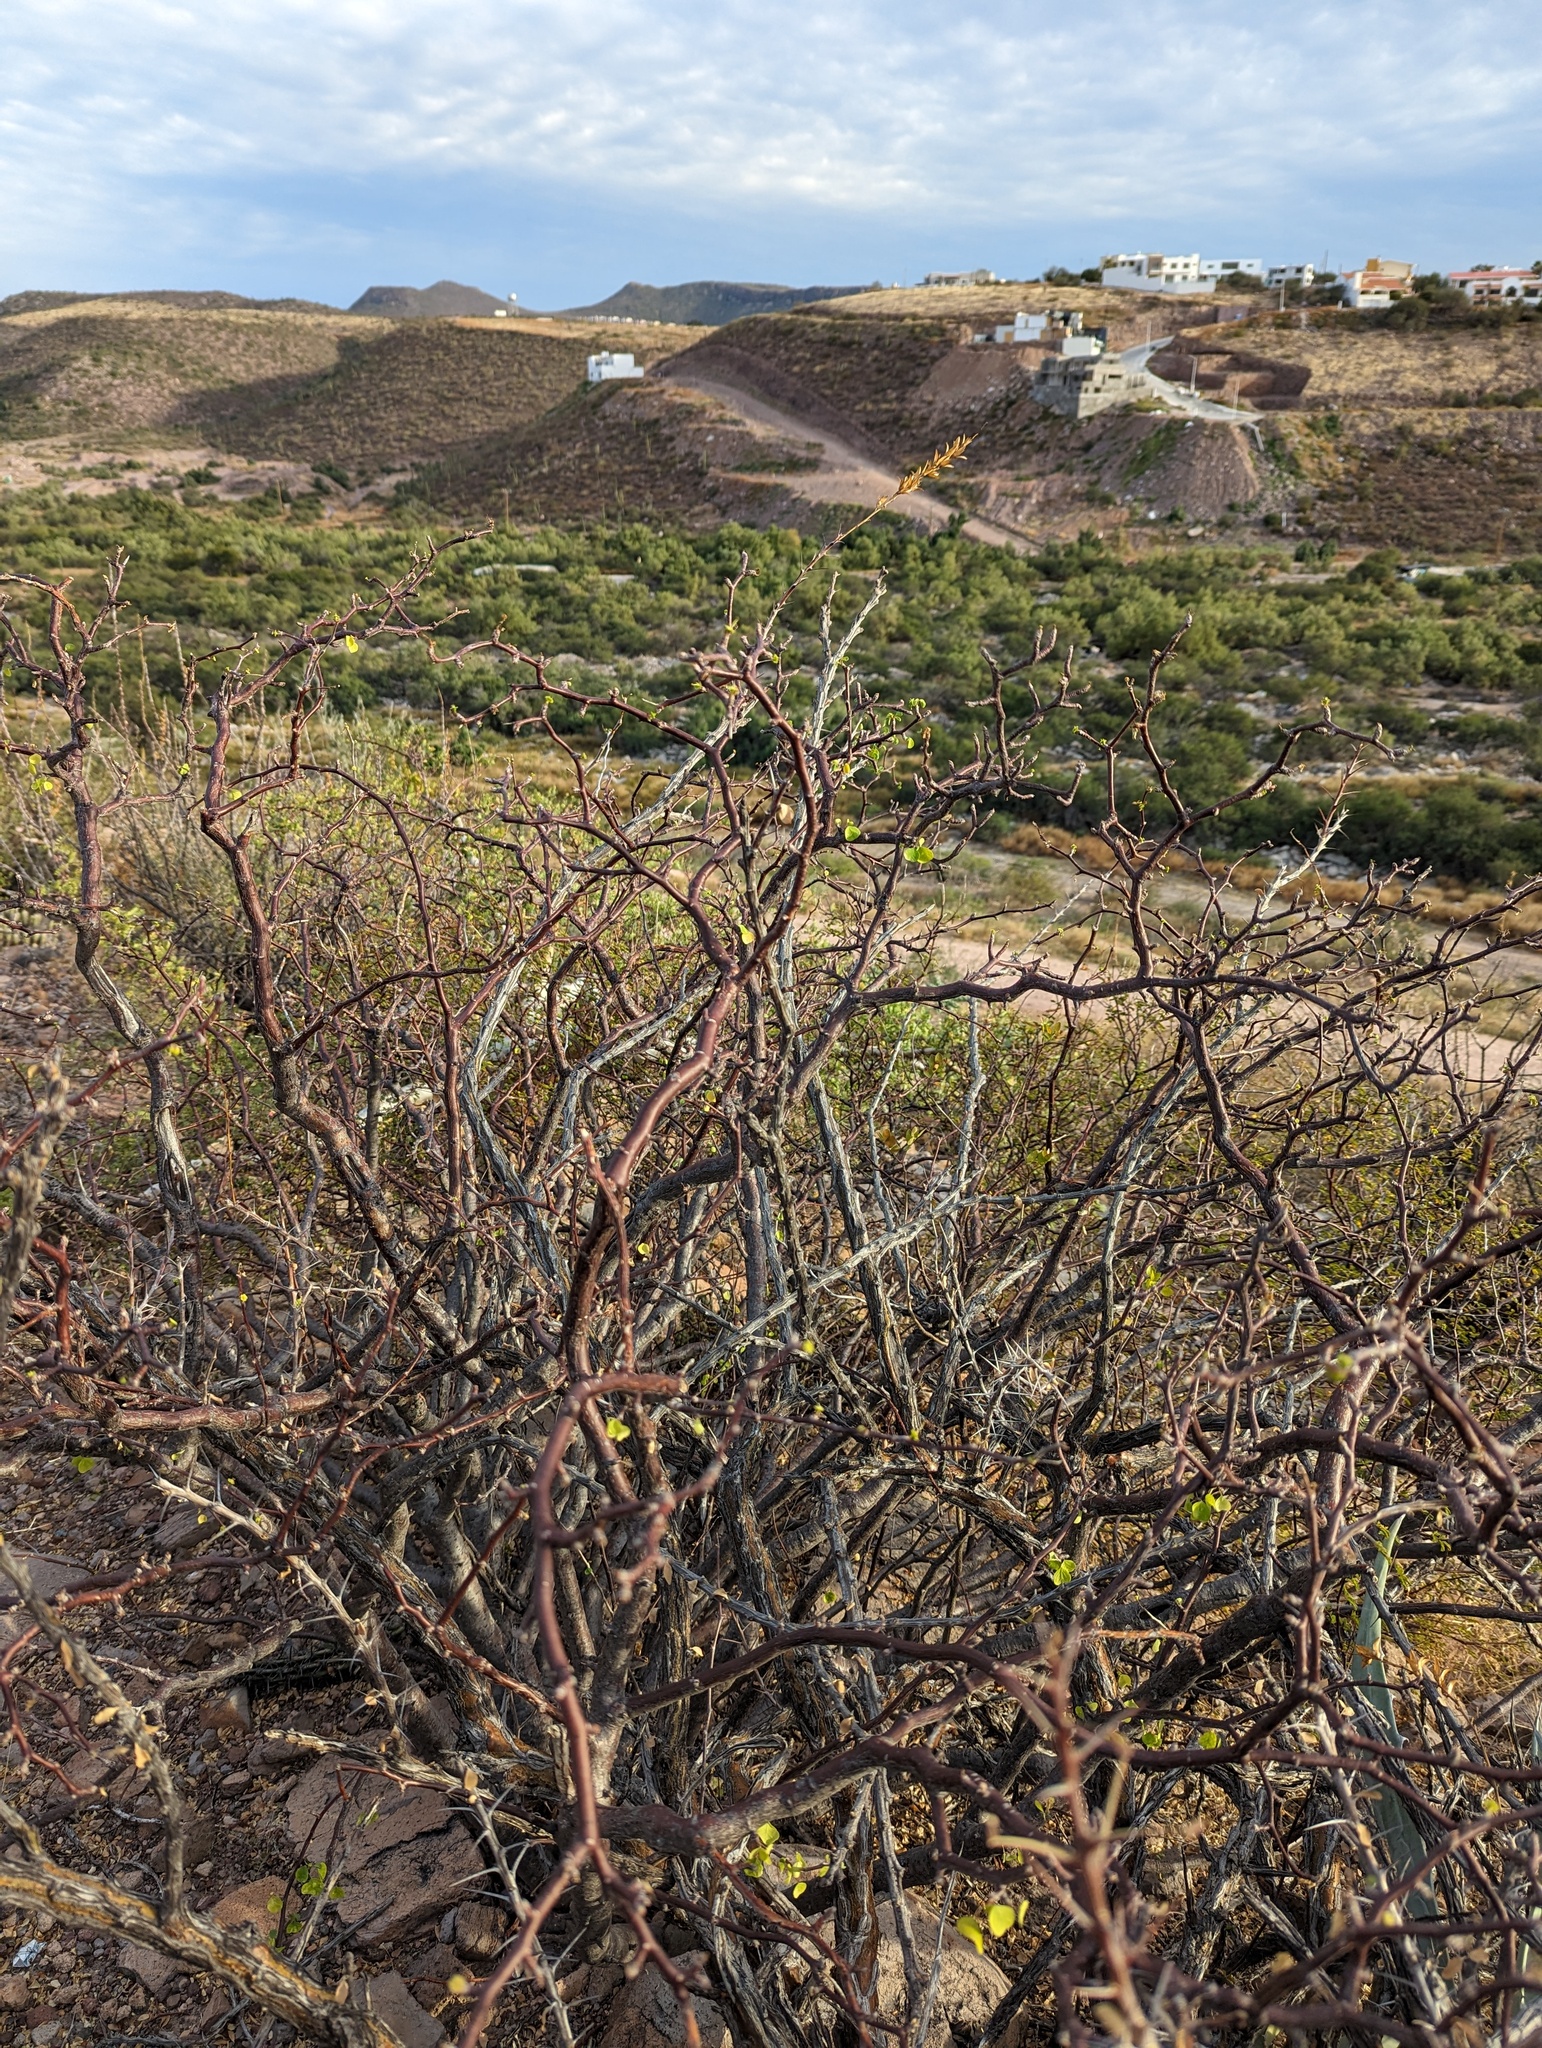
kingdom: Plantae
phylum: Tracheophyta
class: Magnoliopsida
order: Malpighiales
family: Euphorbiaceae
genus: Euphorbia
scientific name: Euphorbia californica
